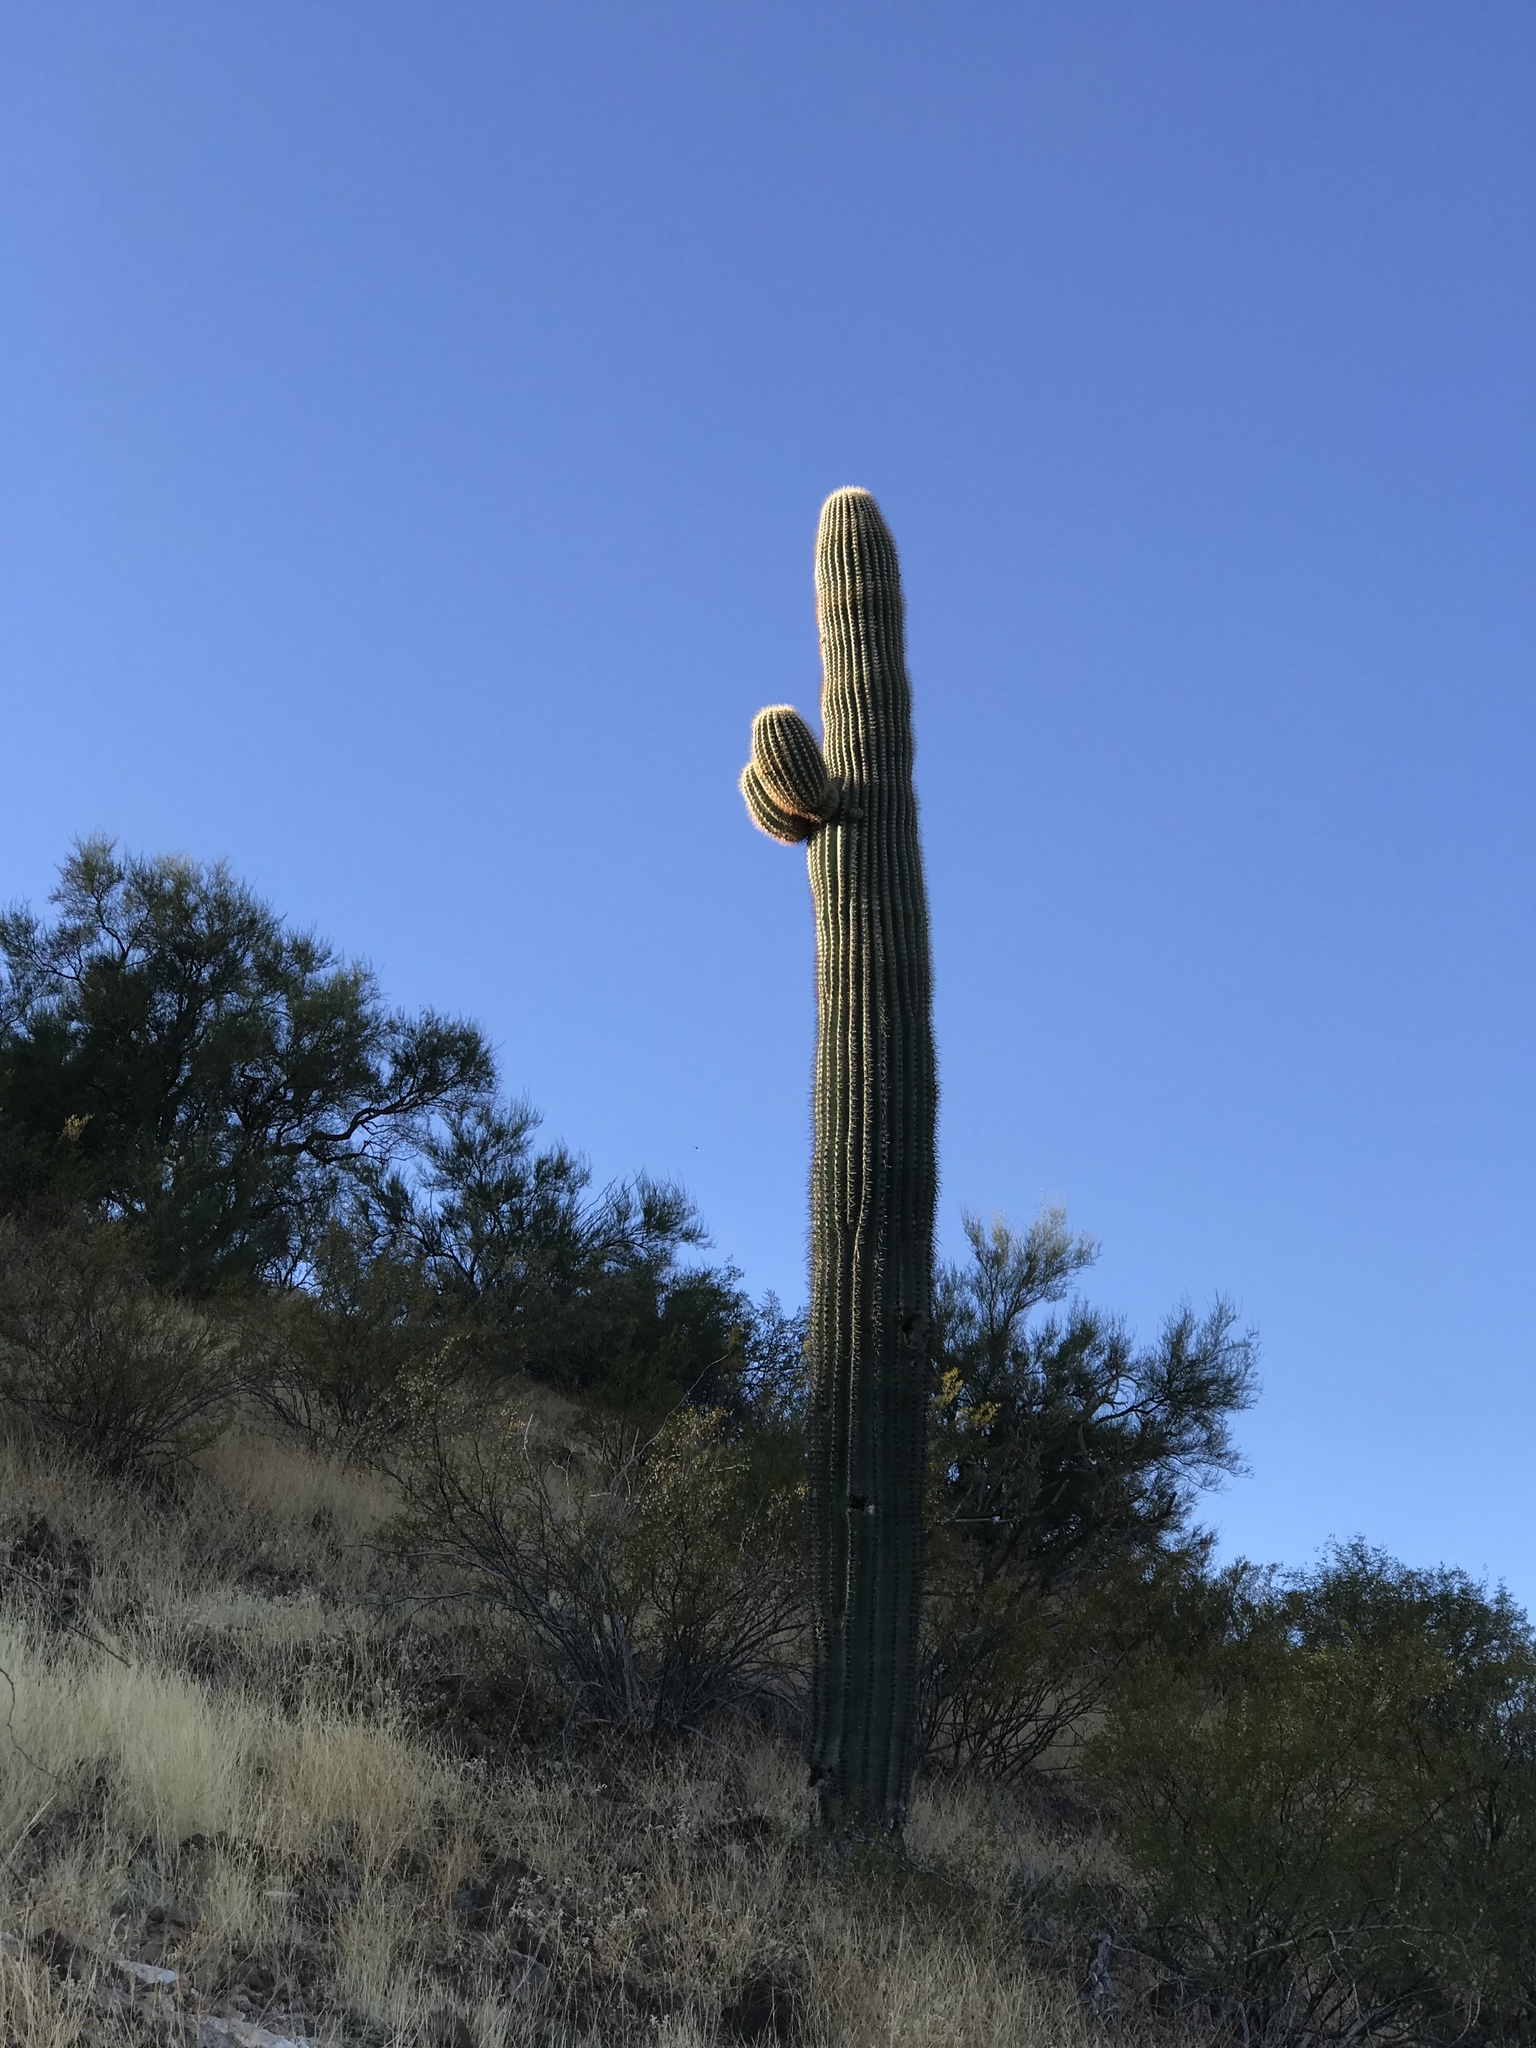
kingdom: Plantae
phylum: Tracheophyta
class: Magnoliopsida
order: Caryophyllales
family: Cactaceae
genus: Carnegiea
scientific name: Carnegiea gigantea
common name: Saguaro
